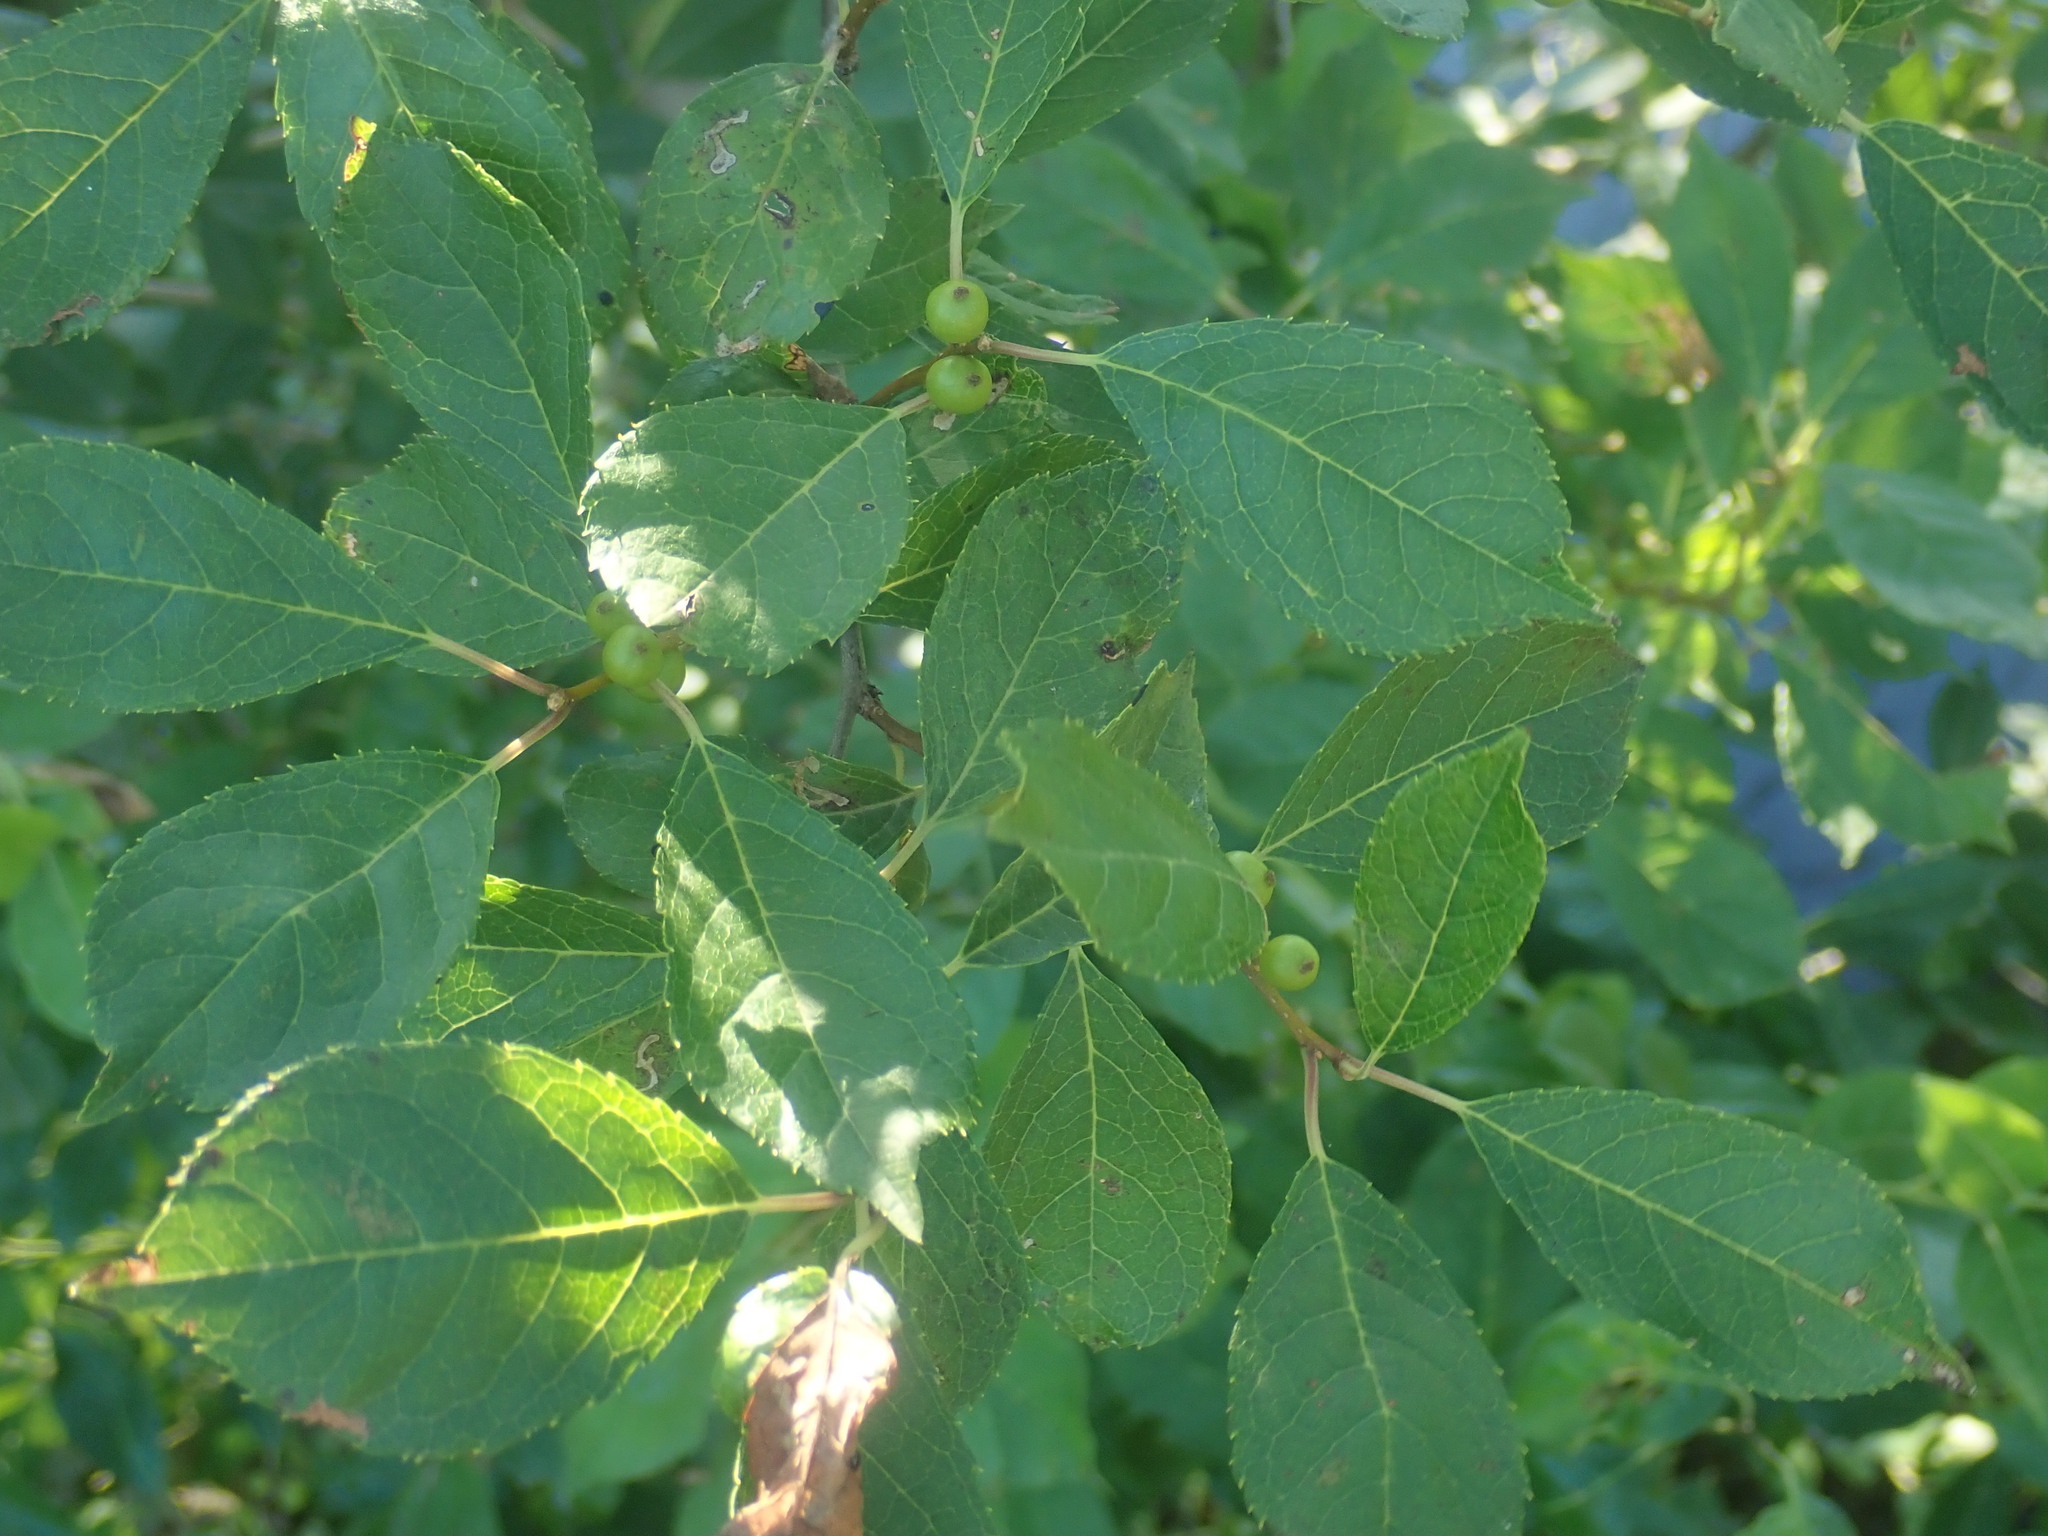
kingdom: Plantae
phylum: Tracheophyta
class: Magnoliopsida
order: Aquifoliales
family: Aquifoliaceae
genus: Ilex
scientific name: Ilex verticillata
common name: Virginia winterberry
